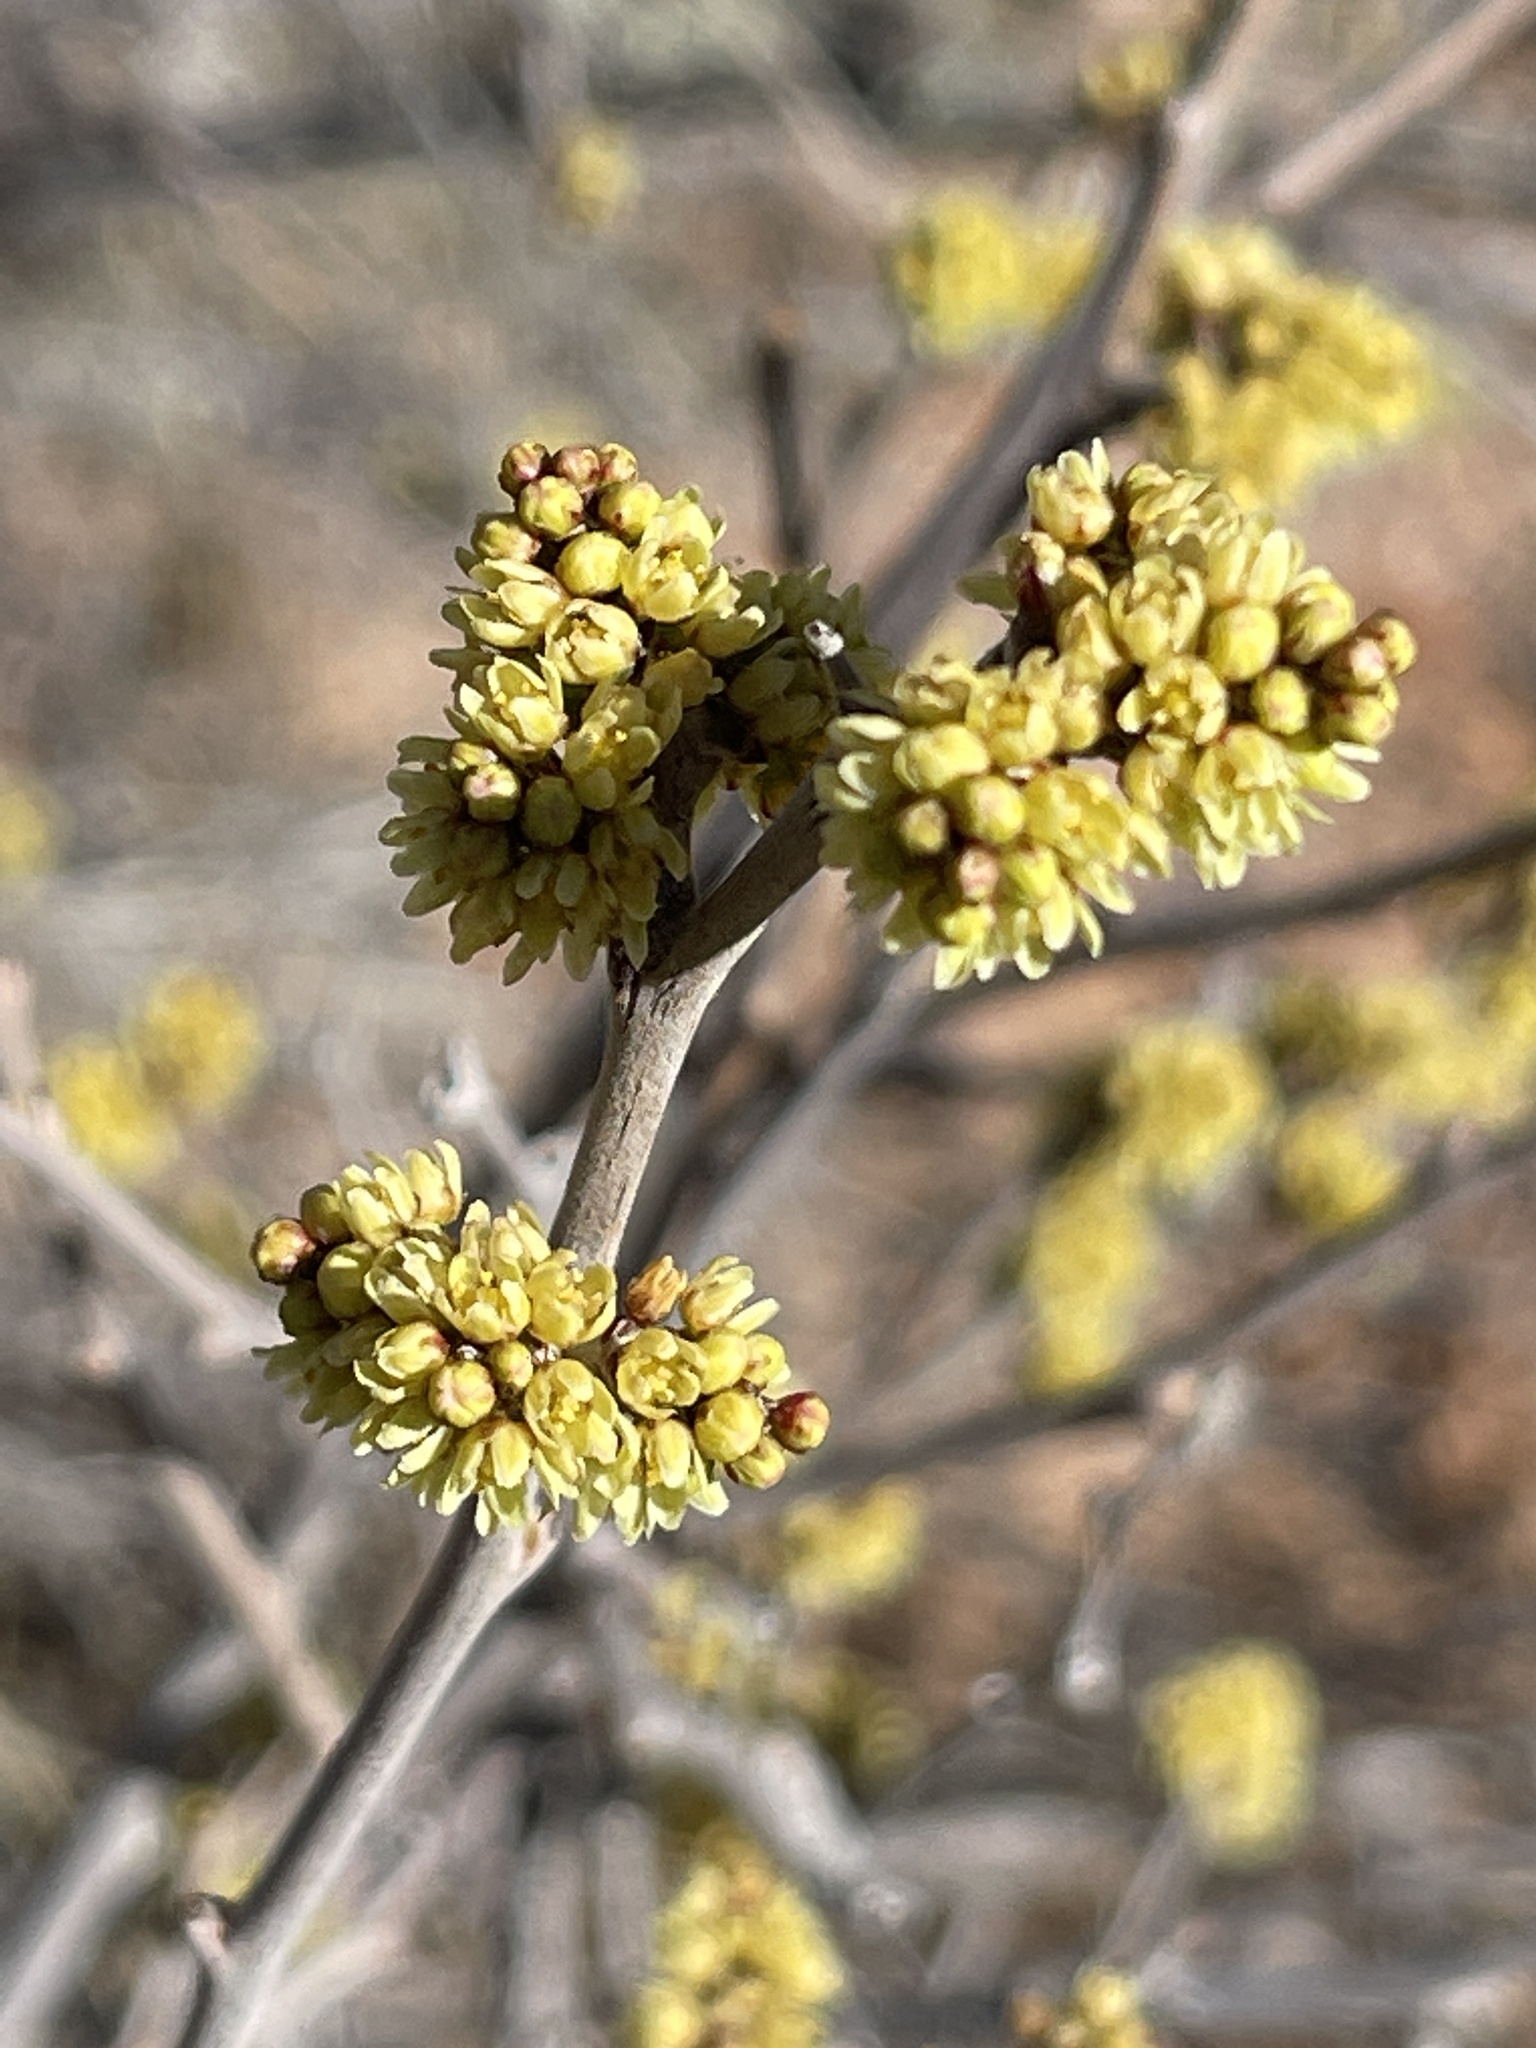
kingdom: Plantae
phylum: Tracheophyta
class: Magnoliopsida
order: Sapindales
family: Anacardiaceae
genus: Rhus
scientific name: Rhus aromatica
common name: Aromatic sumac
